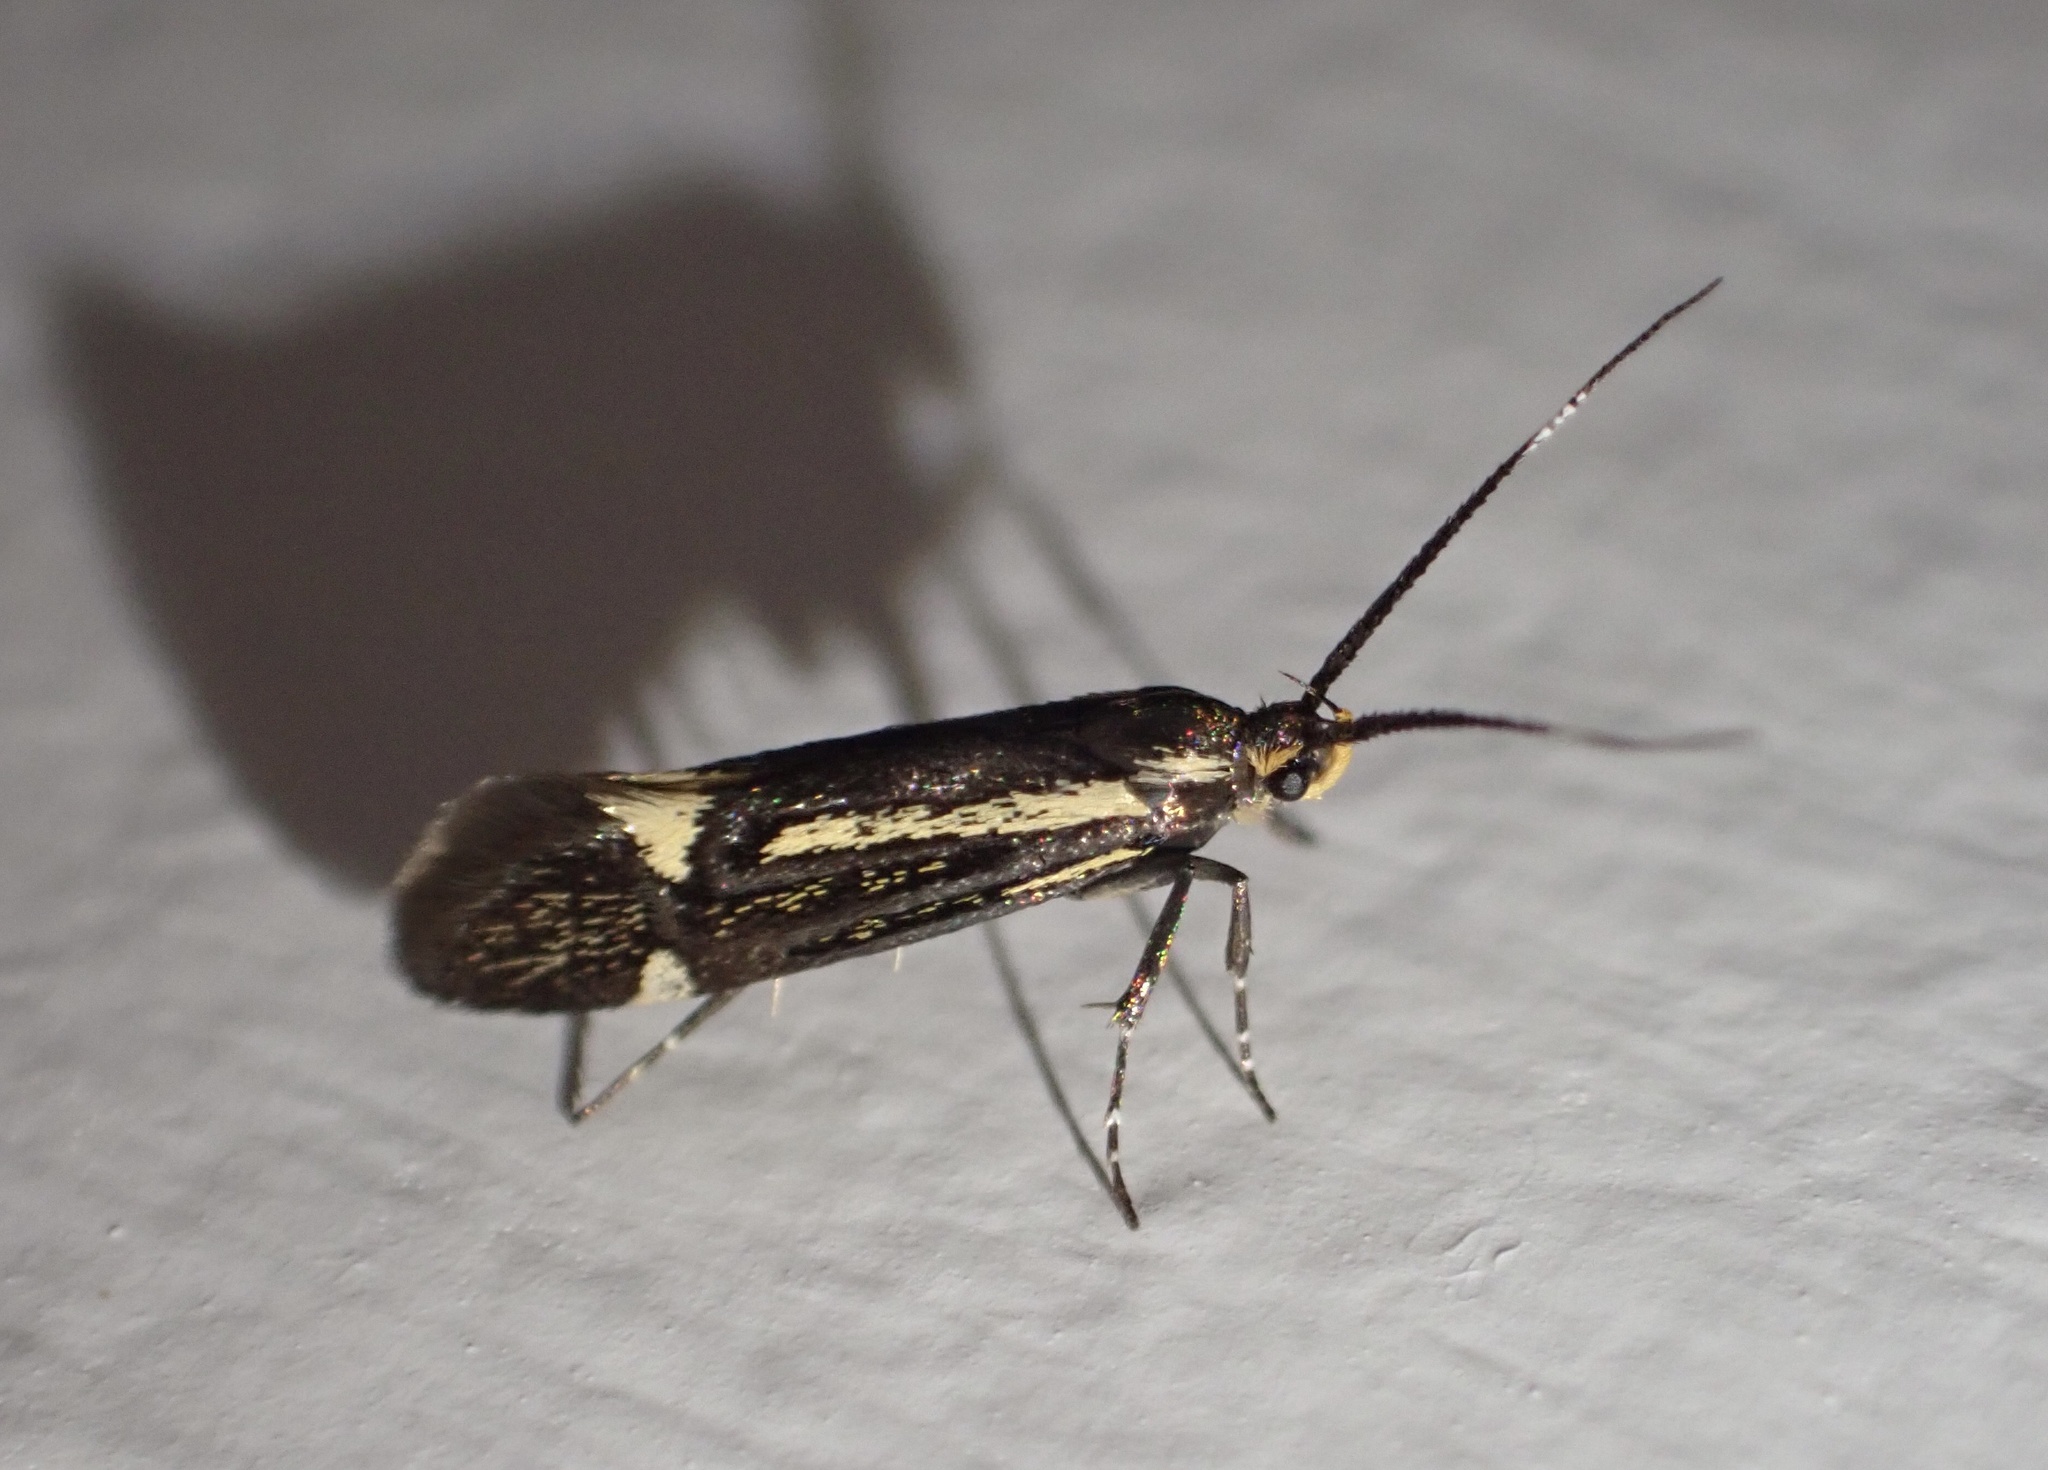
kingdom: Animalia
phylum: Arthropoda
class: Insecta
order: Lepidoptera
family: Oecophoridae
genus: Dafa
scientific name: Dafa Esperia sulphurella
